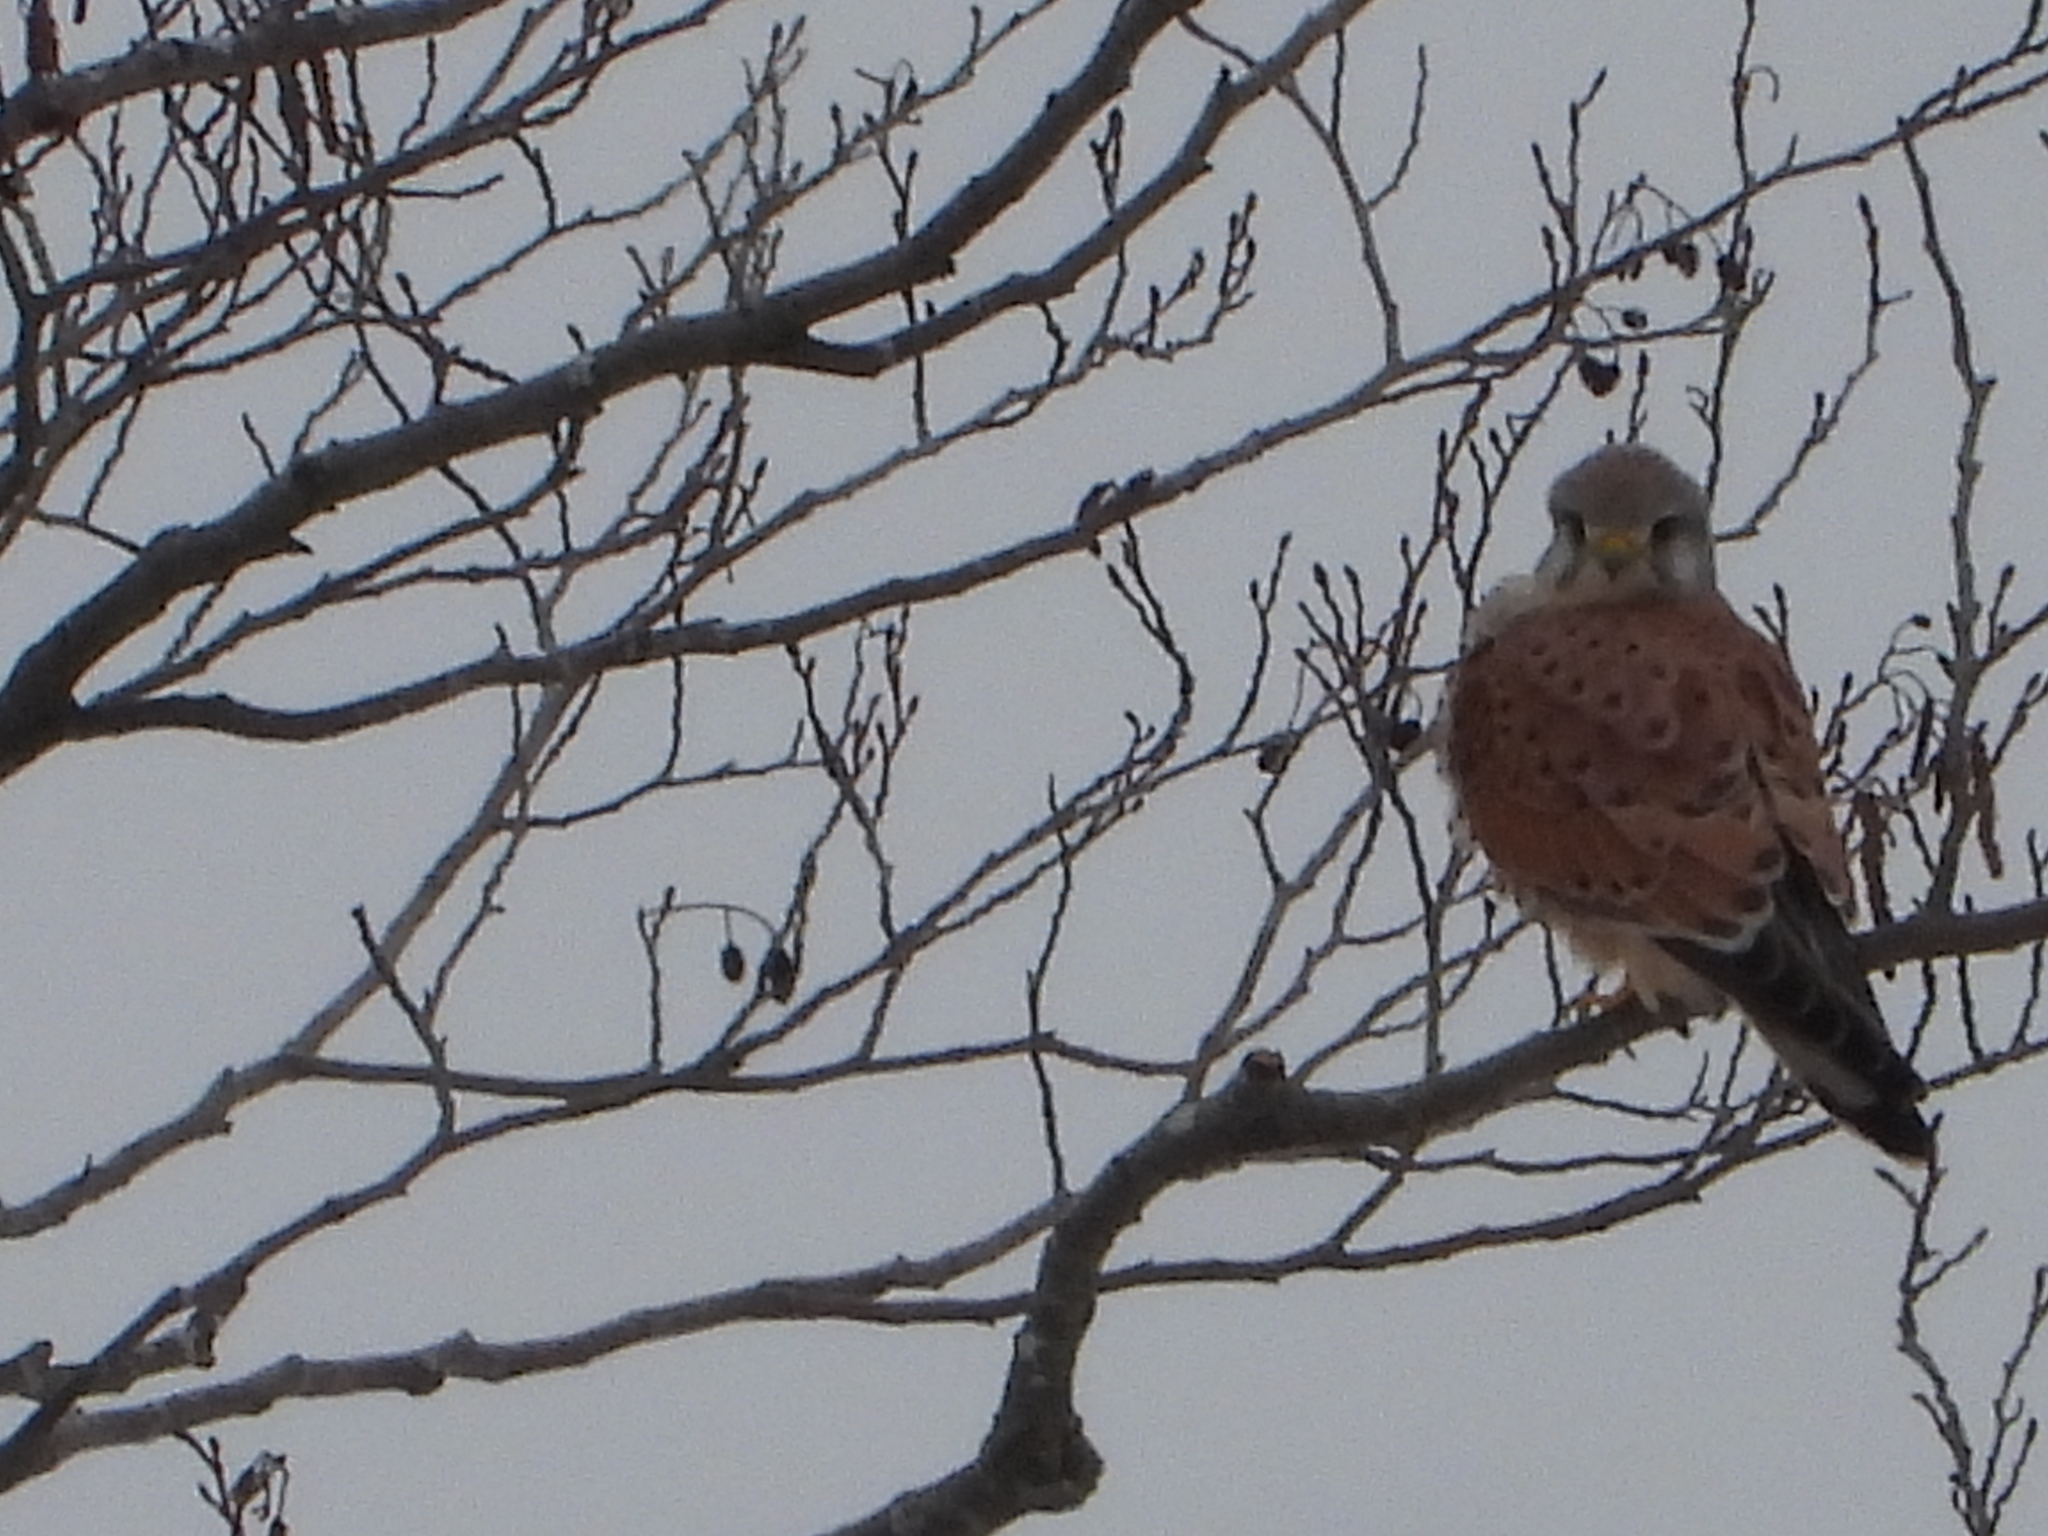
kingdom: Animalia
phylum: Chordata
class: Aves
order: Falconiformes
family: Falconidae
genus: Falco
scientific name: Falco tinnunculus
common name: Common kestrel
